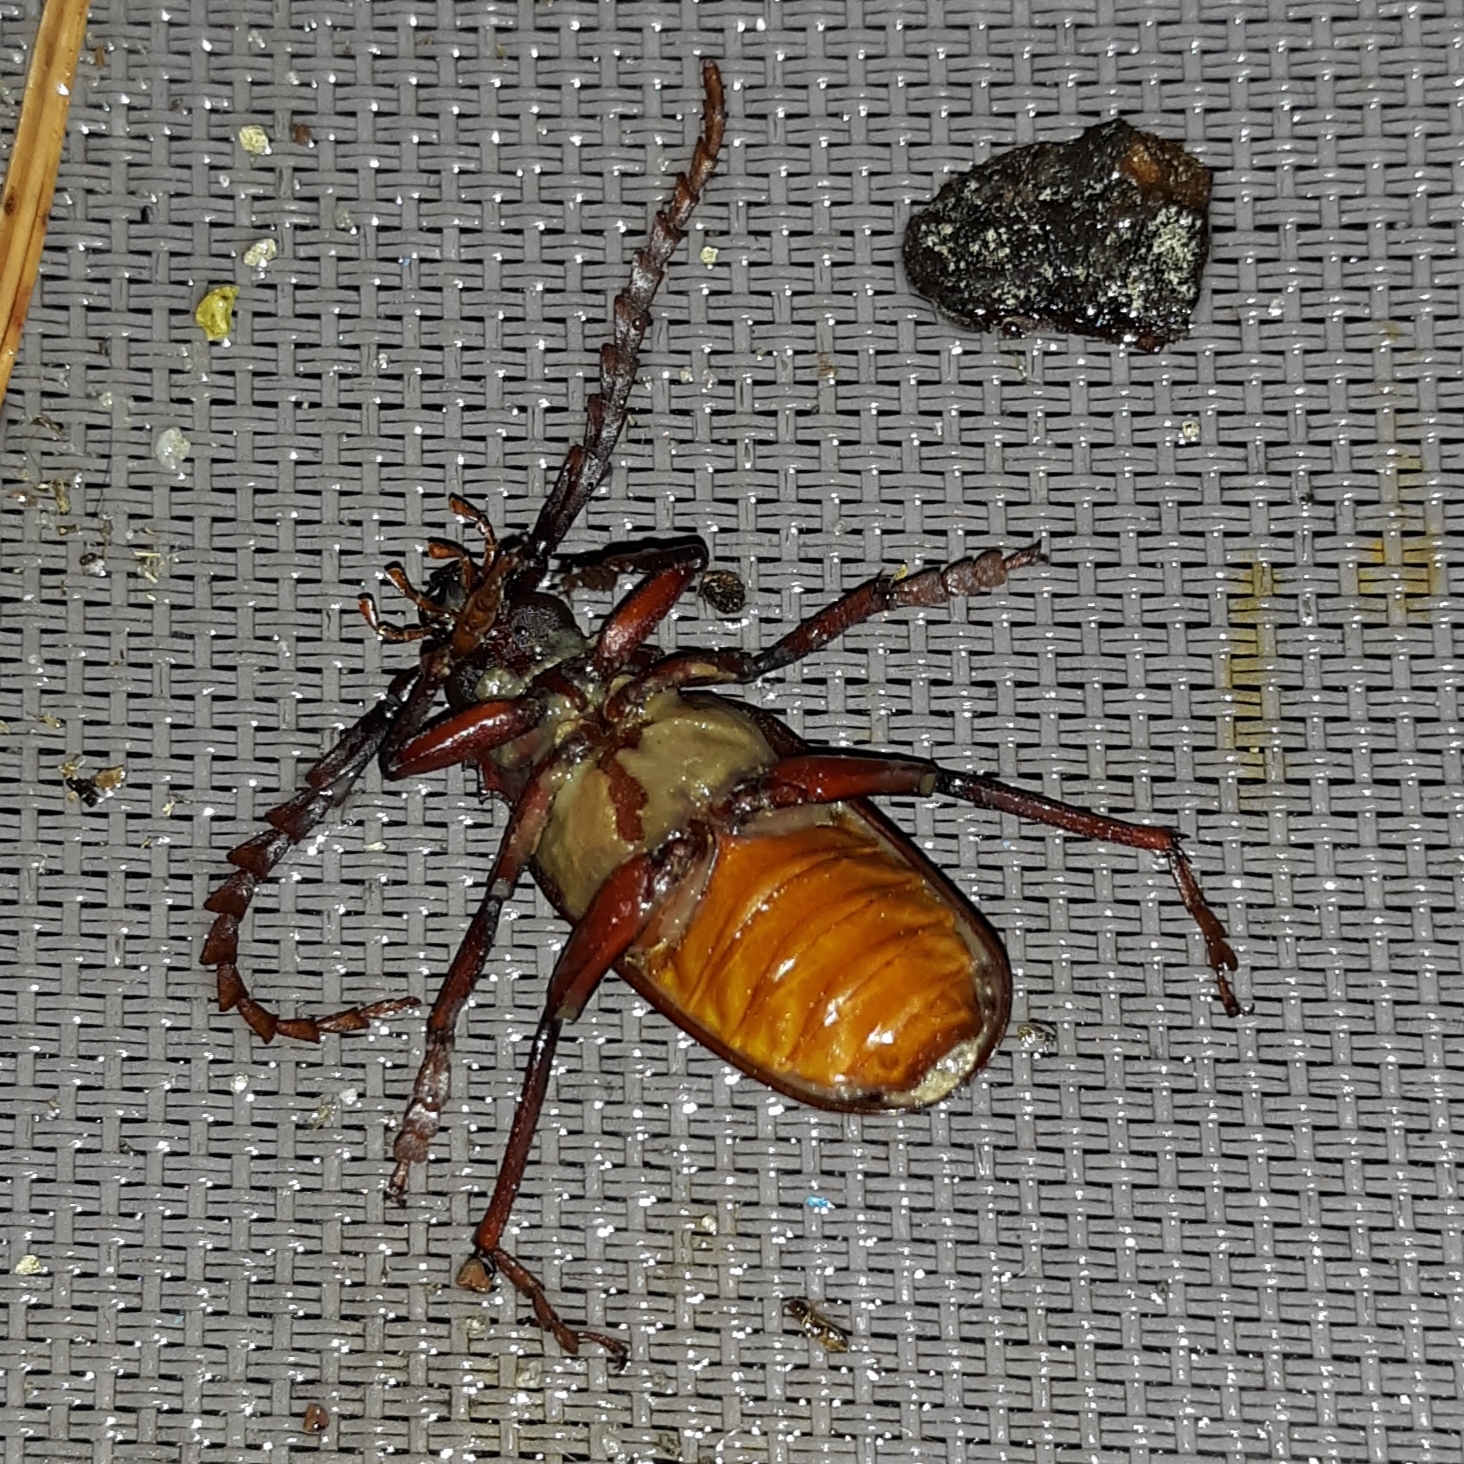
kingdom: Animalia
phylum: Arthropoda
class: Insecta
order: Coleoptera
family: Cerambycidae
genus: Prionus
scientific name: Prionus pocularis
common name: Tooth-necked longhorn beetle
